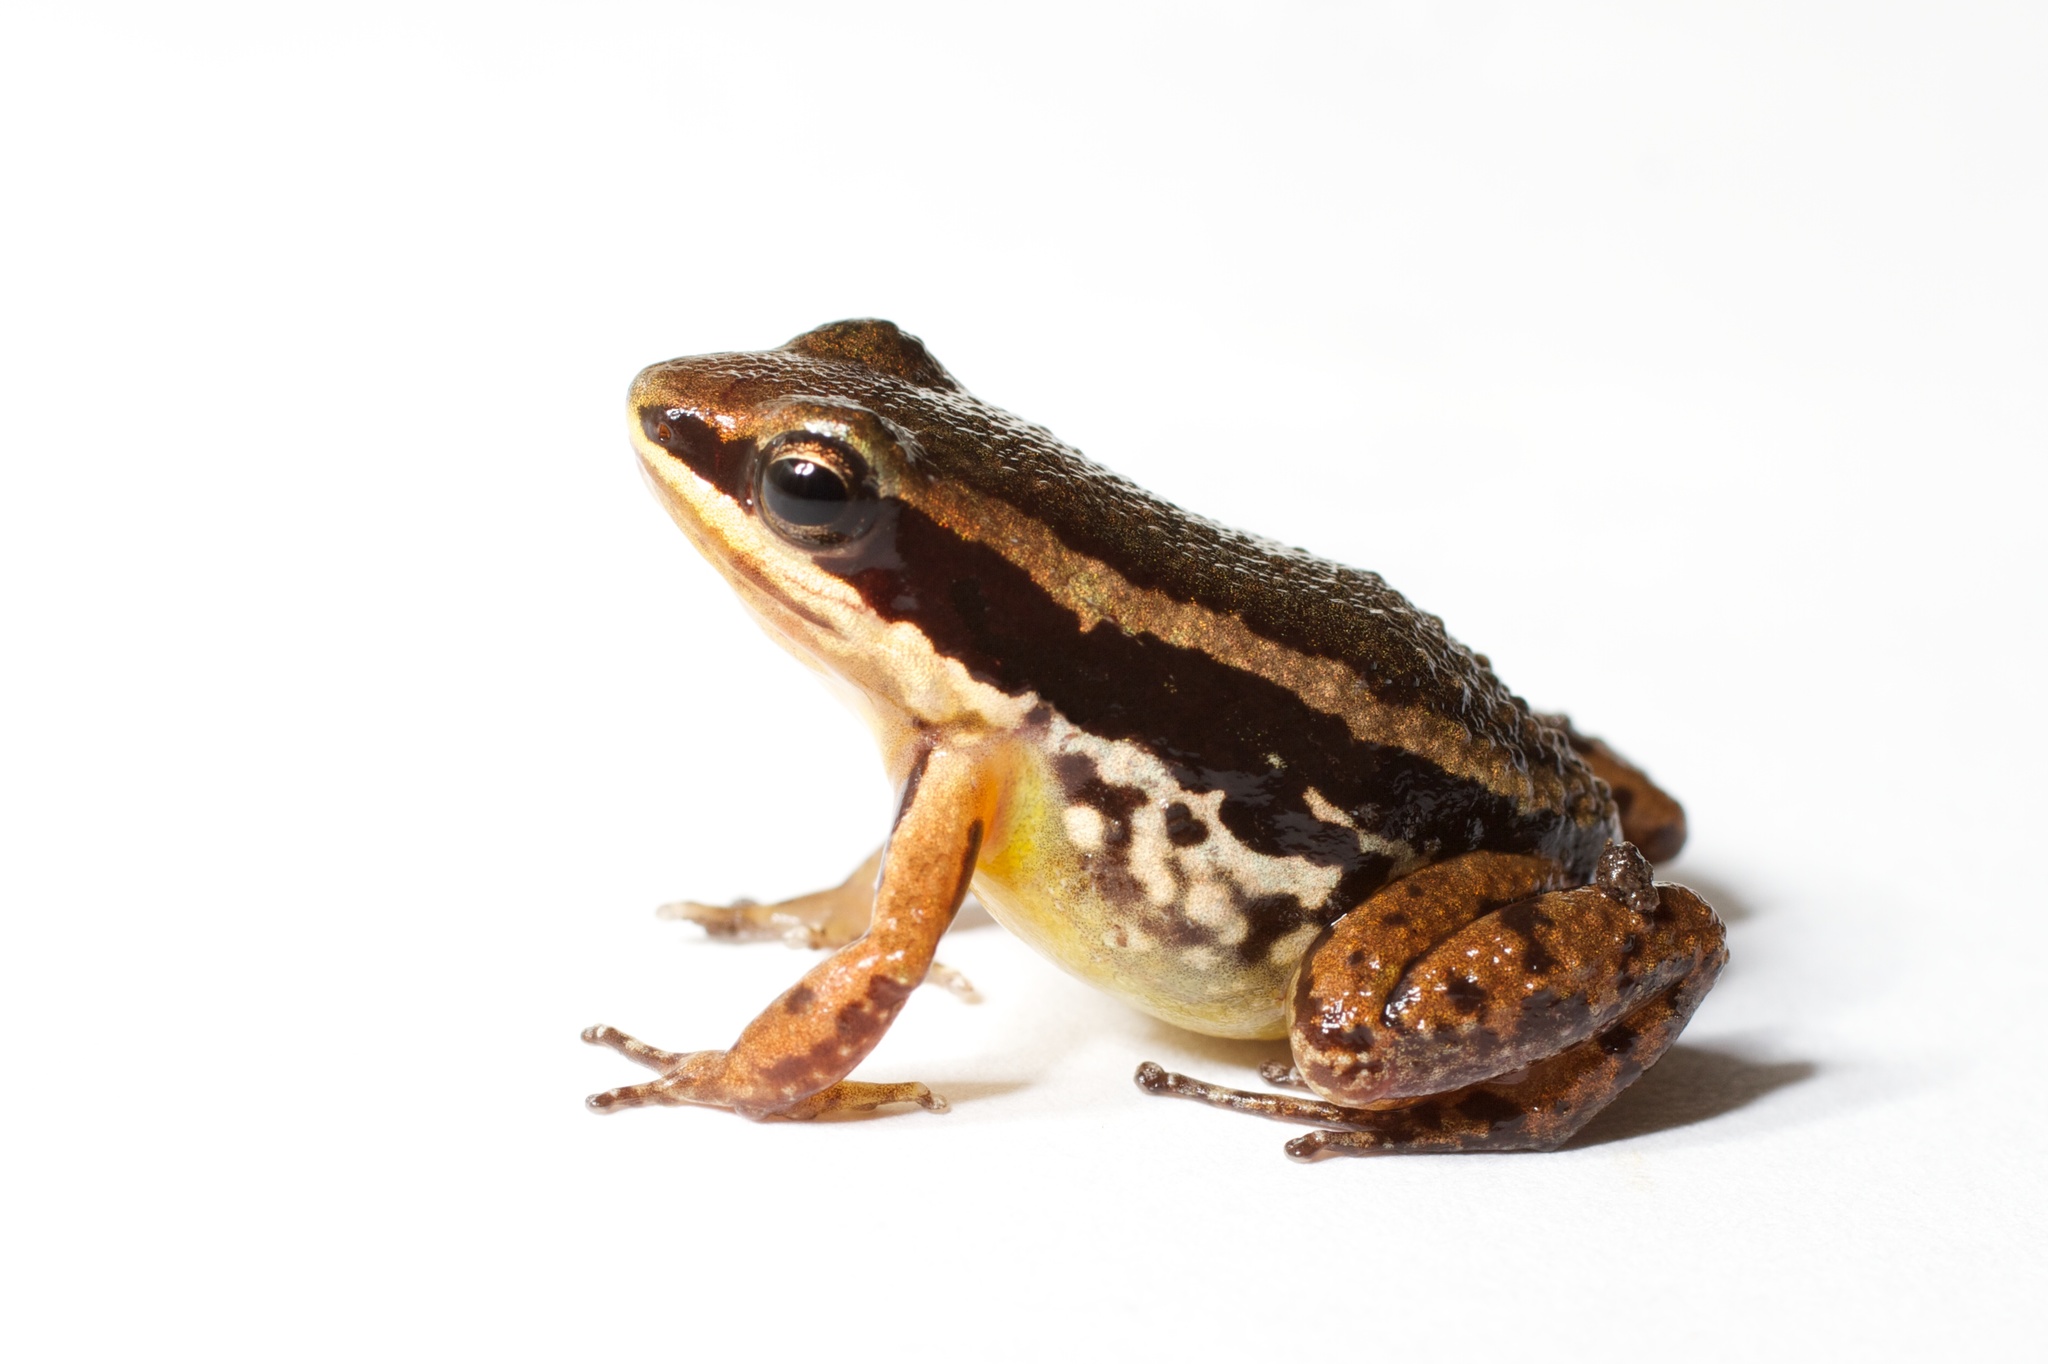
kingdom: Animalia
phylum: Chordata
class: Amphibia
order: Anura
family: Aromobatidae
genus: Allobates
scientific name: Allobates talamancae
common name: Talamanca rocket frog
